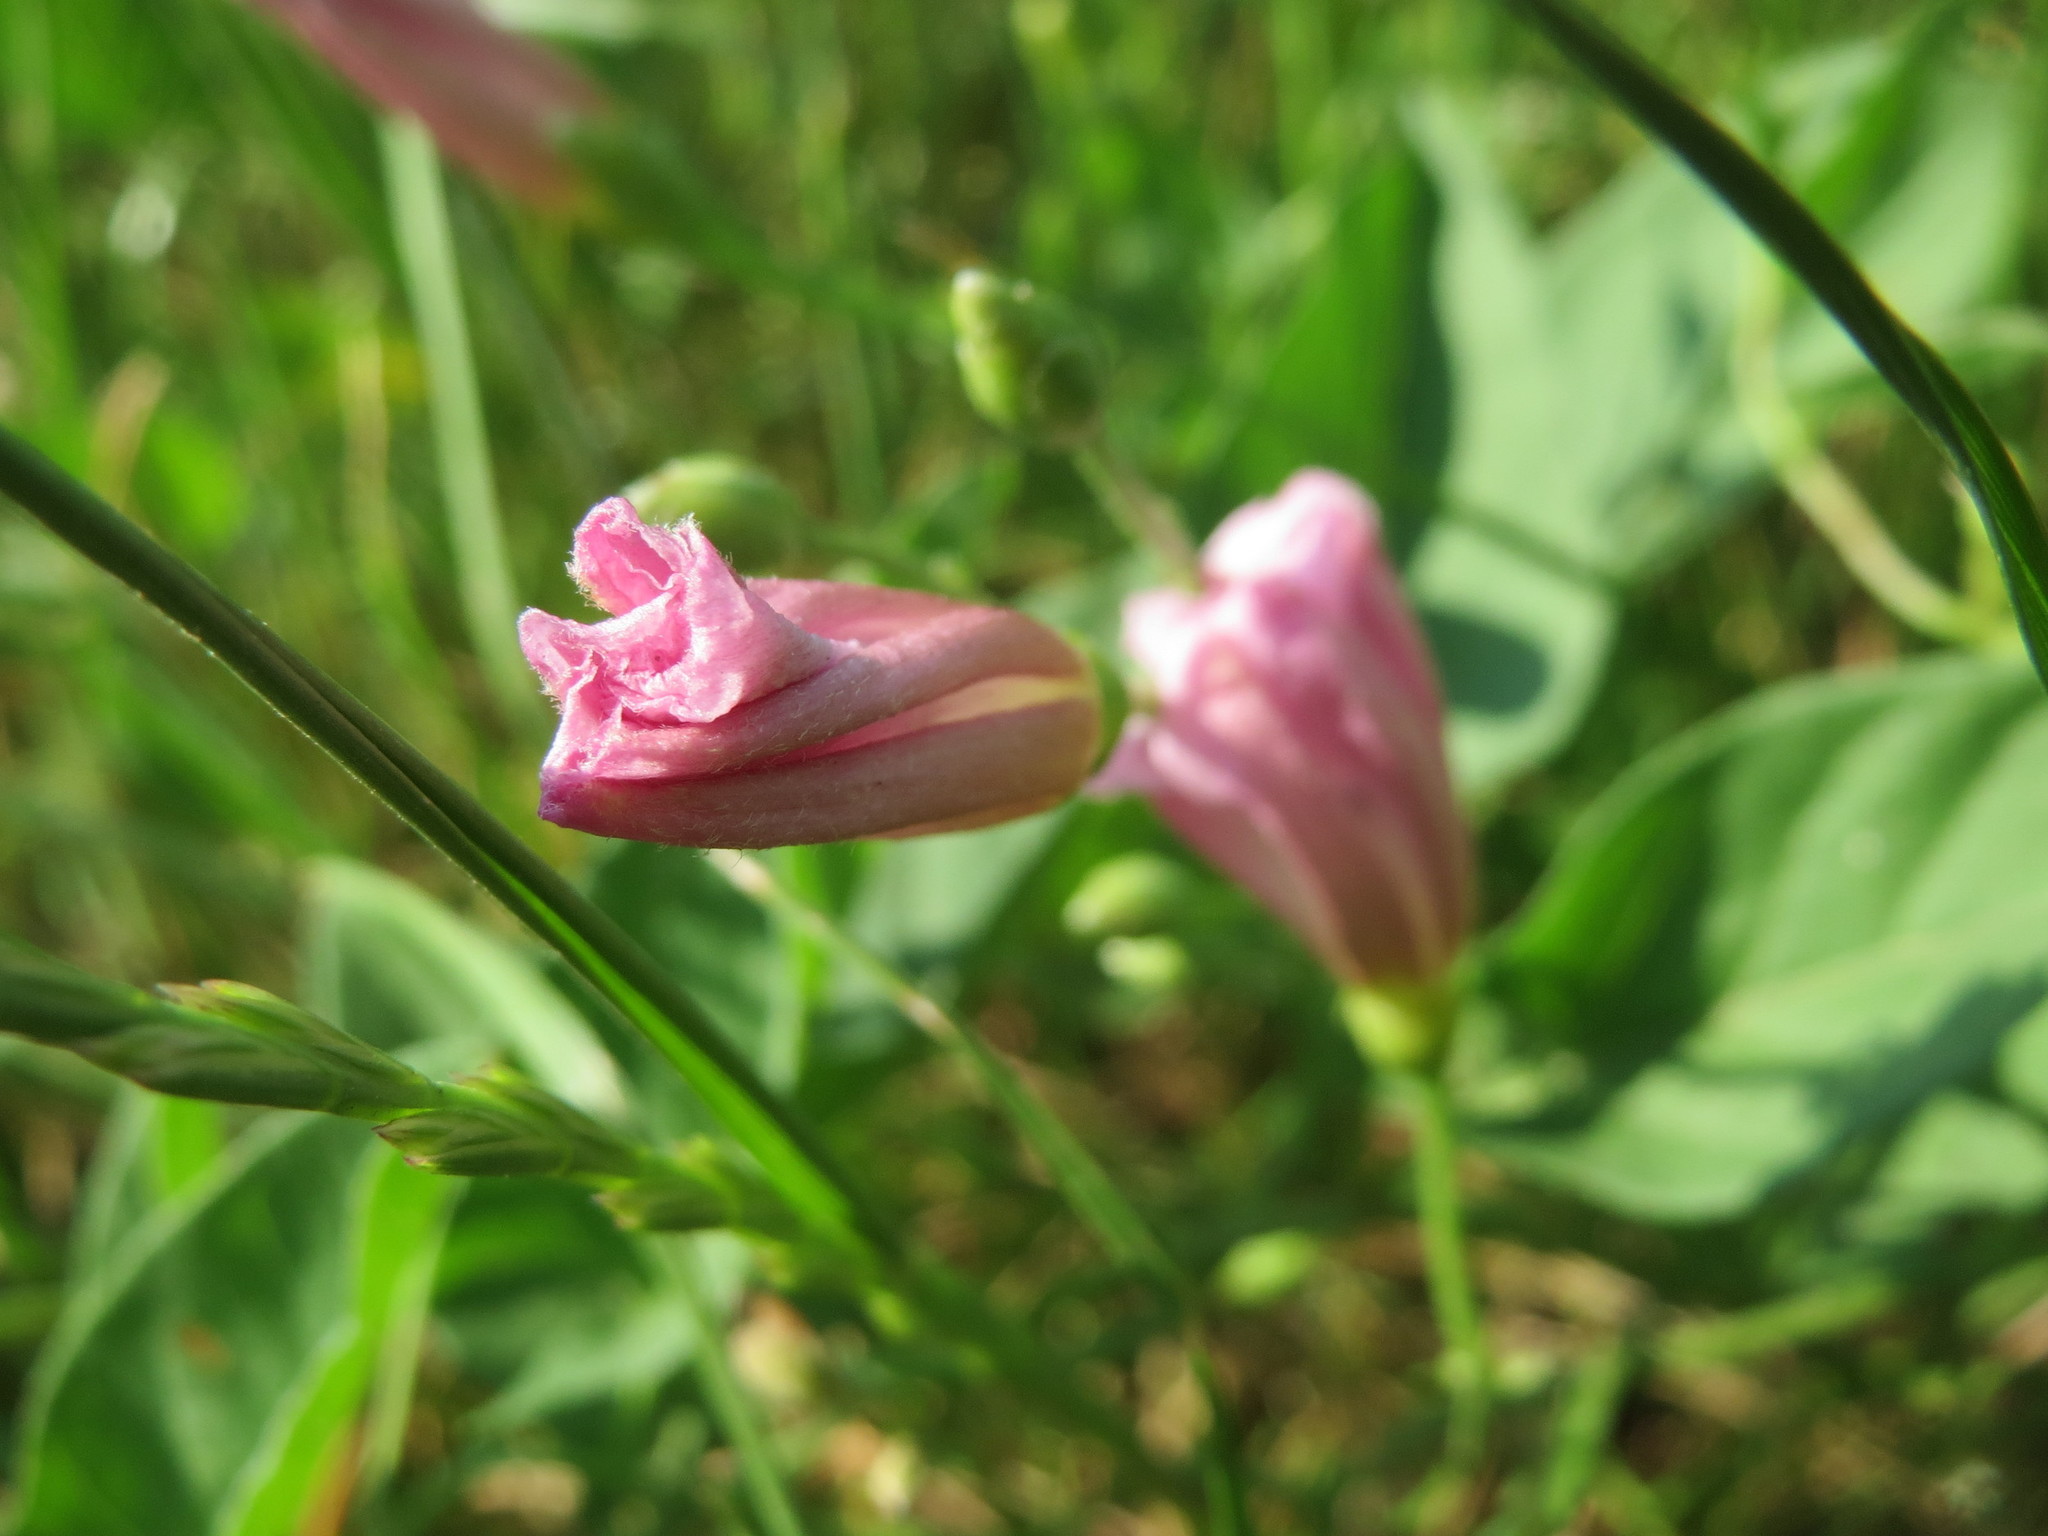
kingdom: Plantae
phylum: Tracheophyta
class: Magnoliopsida
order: Solanales
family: Convolvulaceae
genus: Convolvulus
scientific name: Convolvulus arvensis
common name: Field bindweed
